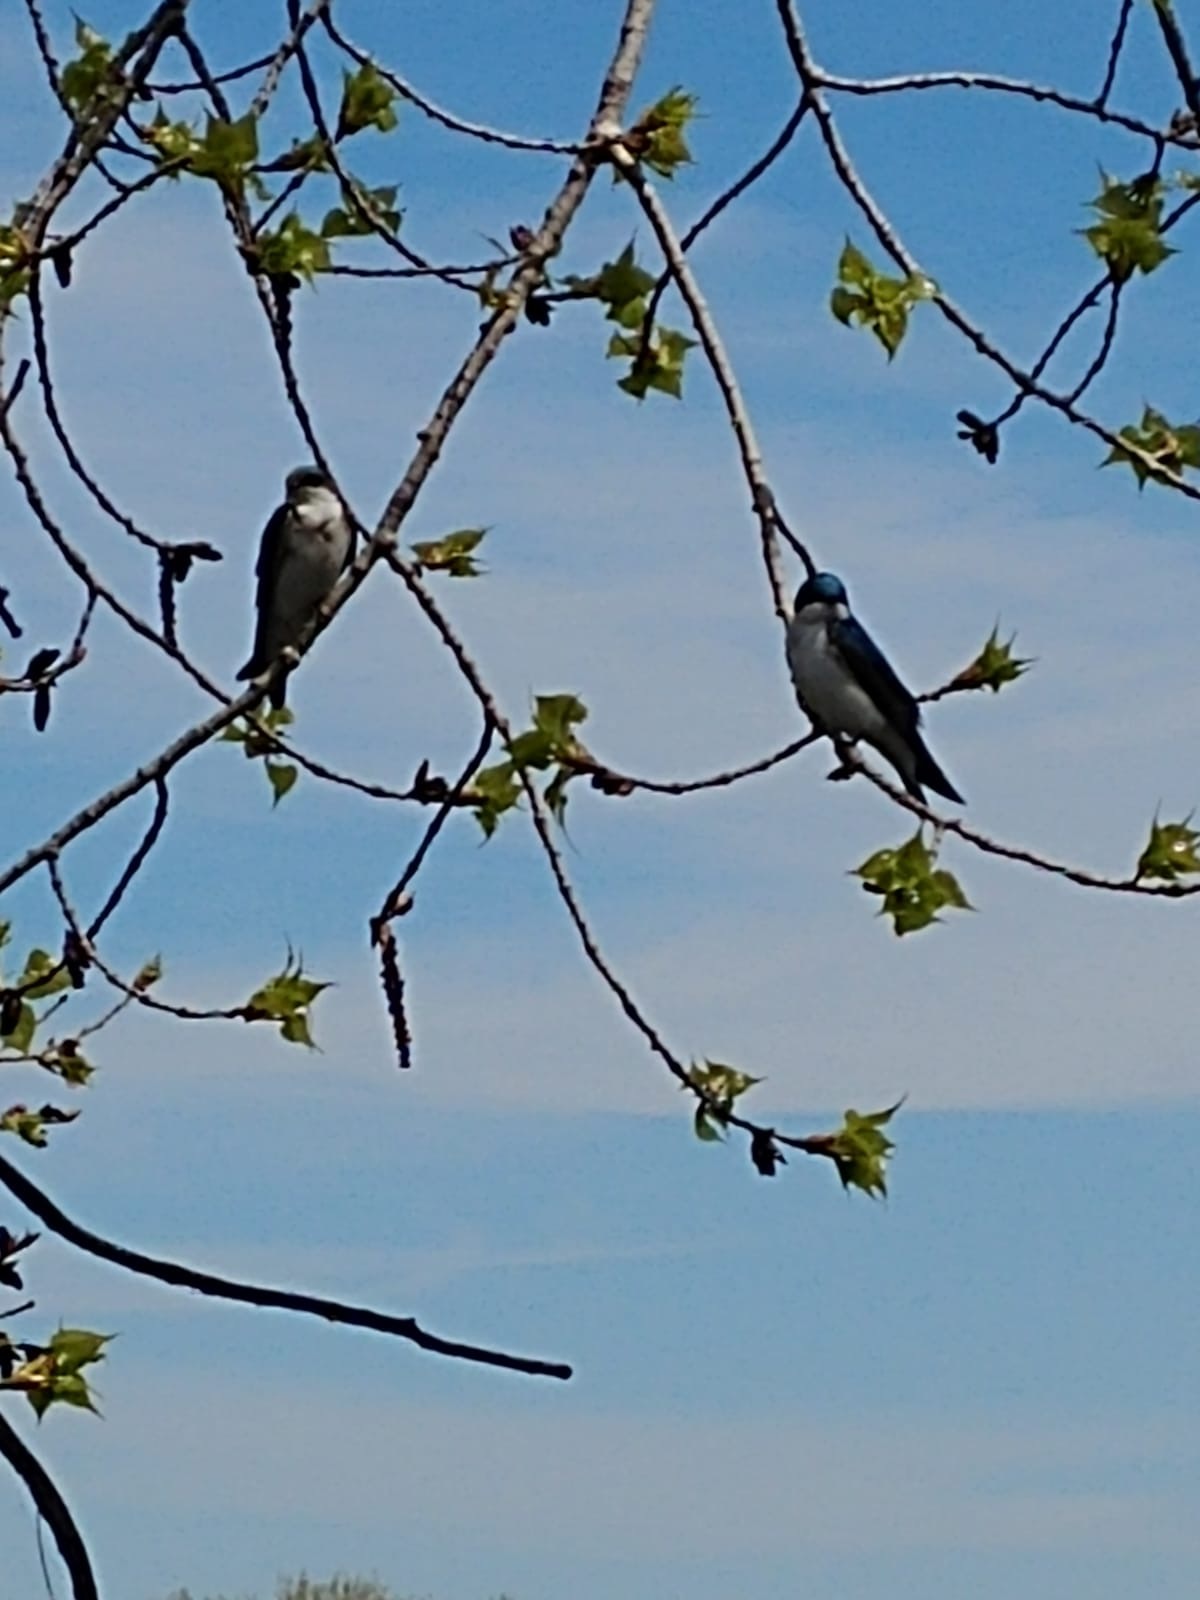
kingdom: Animalia
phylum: Chordata
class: Aves
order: Passeriformes
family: Hirundinidae
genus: Tachycineta
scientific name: Tachycineta bicolor
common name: Tree swallow
